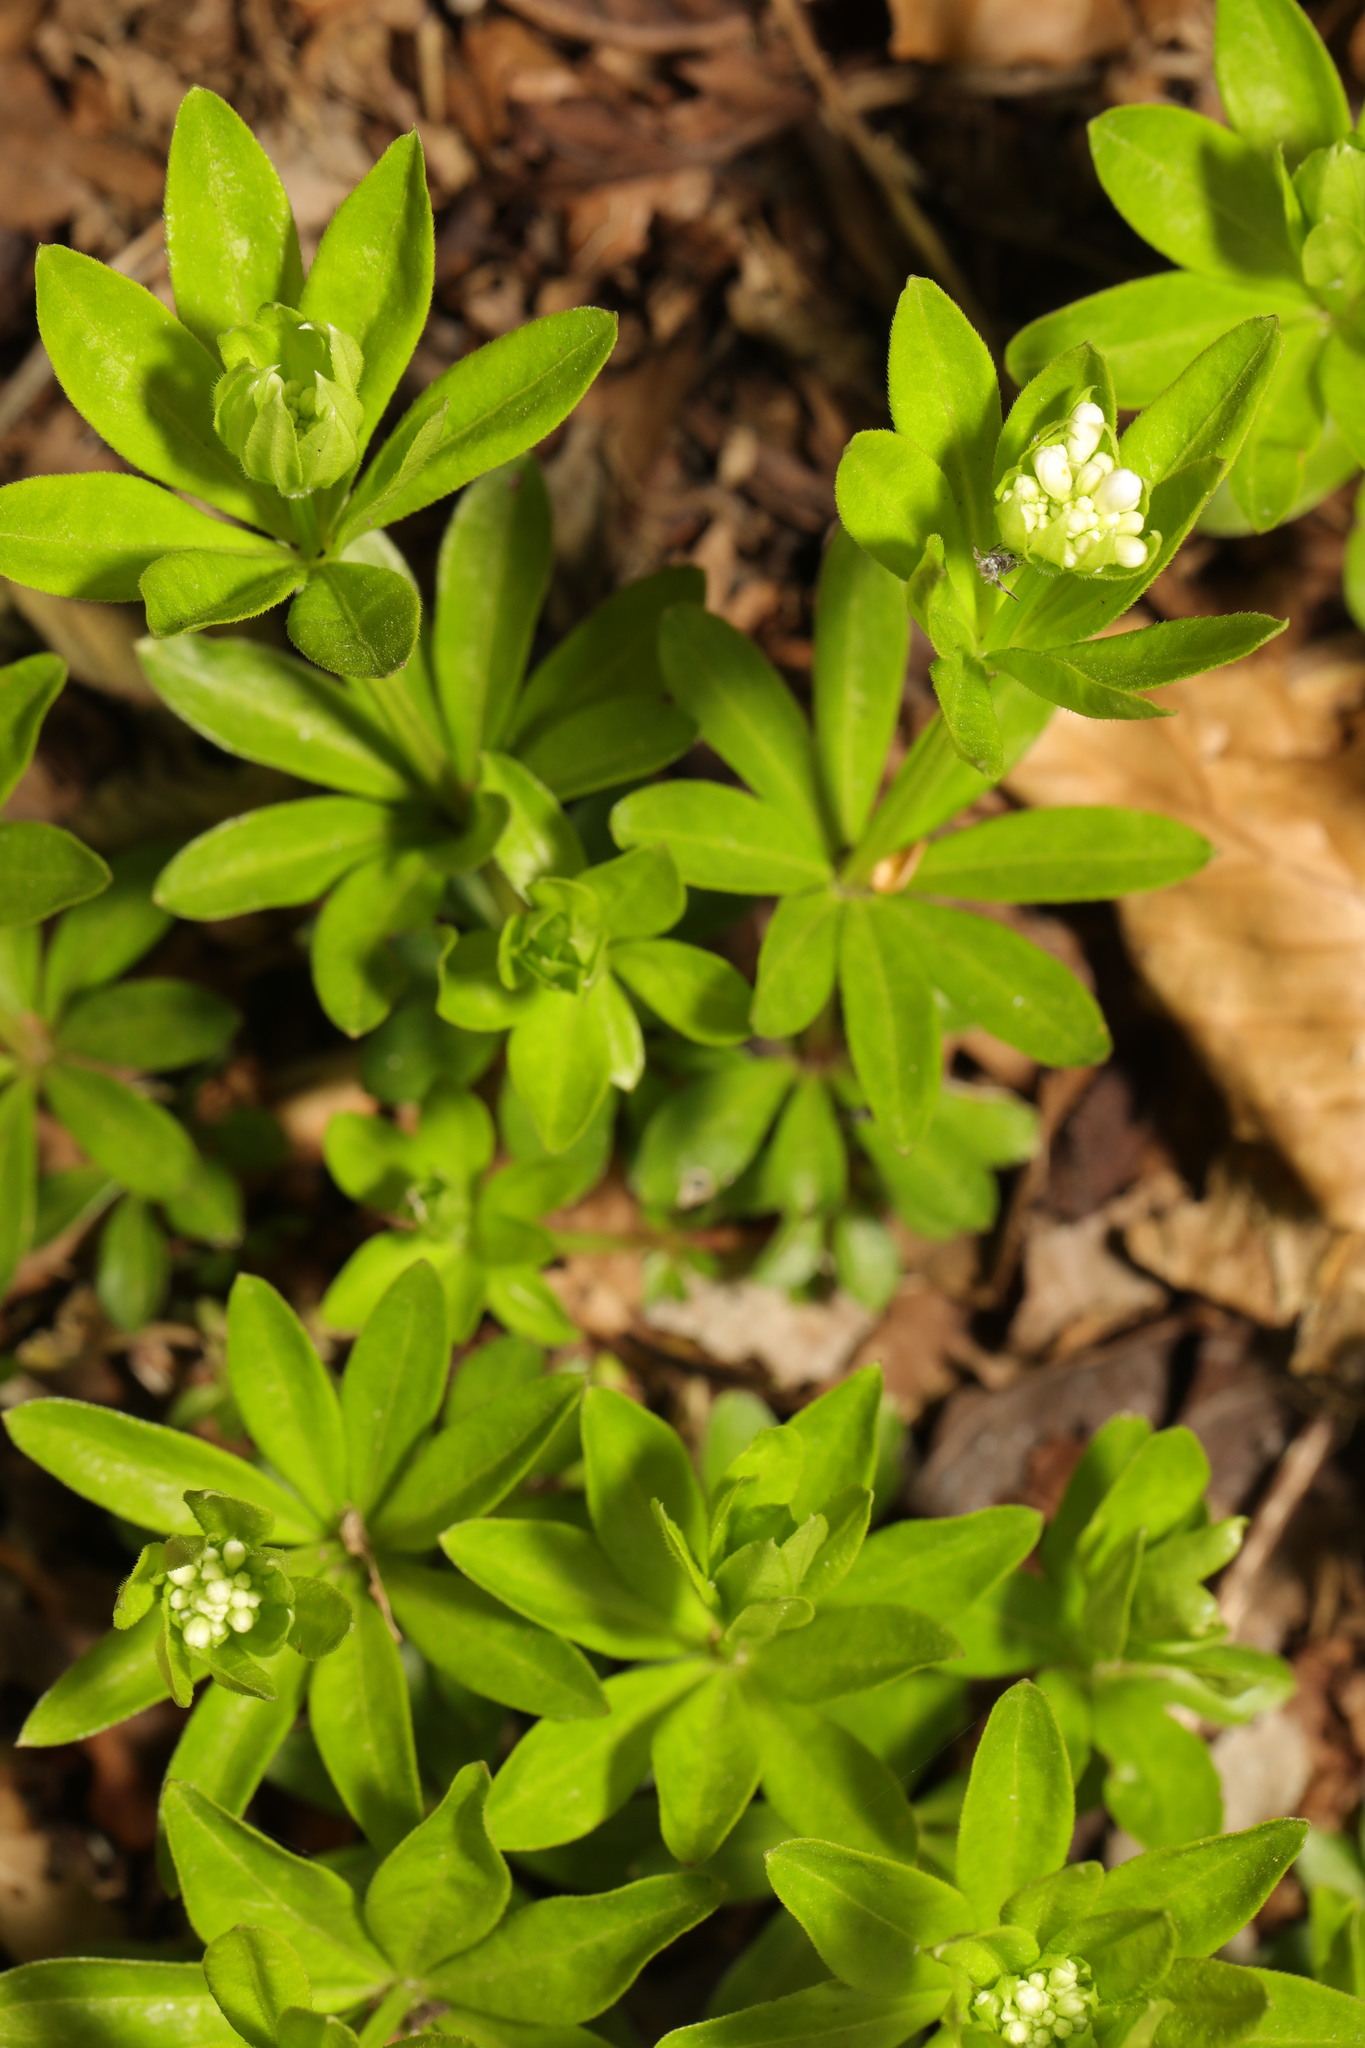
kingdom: Plantae
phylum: Tracheophyta
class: Magnoliopsida
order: Gentianales
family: Rubiaceae
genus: Galium
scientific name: Galium odoratum
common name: Sweet woodruff
